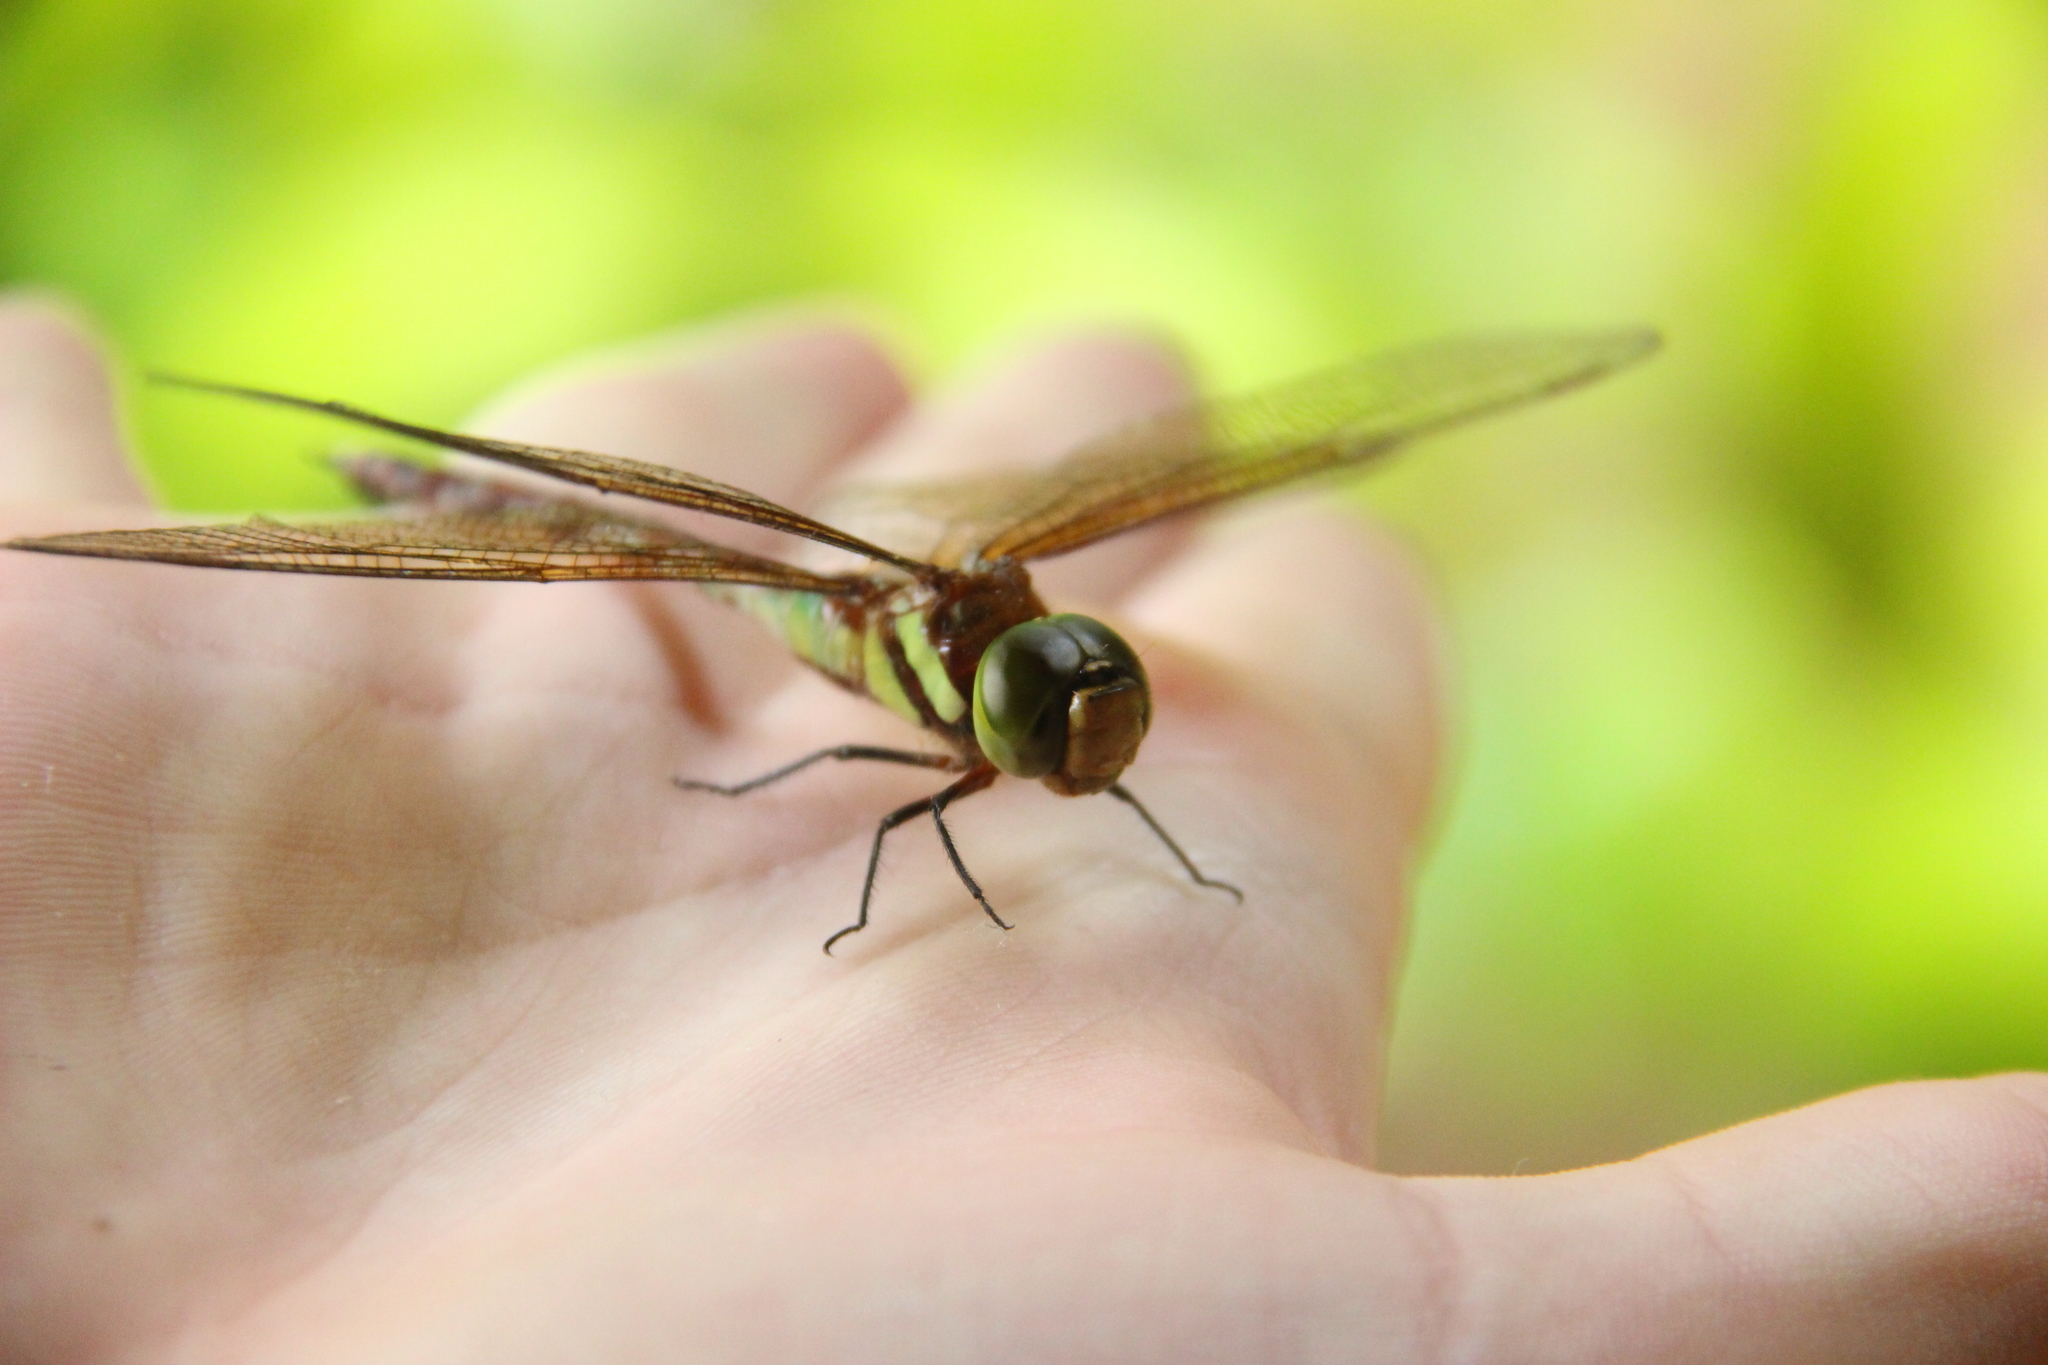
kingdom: Animalia
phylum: Arthropoda
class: Insecta
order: Odonata
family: Aeshnidae
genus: Anaciaeschna
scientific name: Anaciaeschna jaspidea
